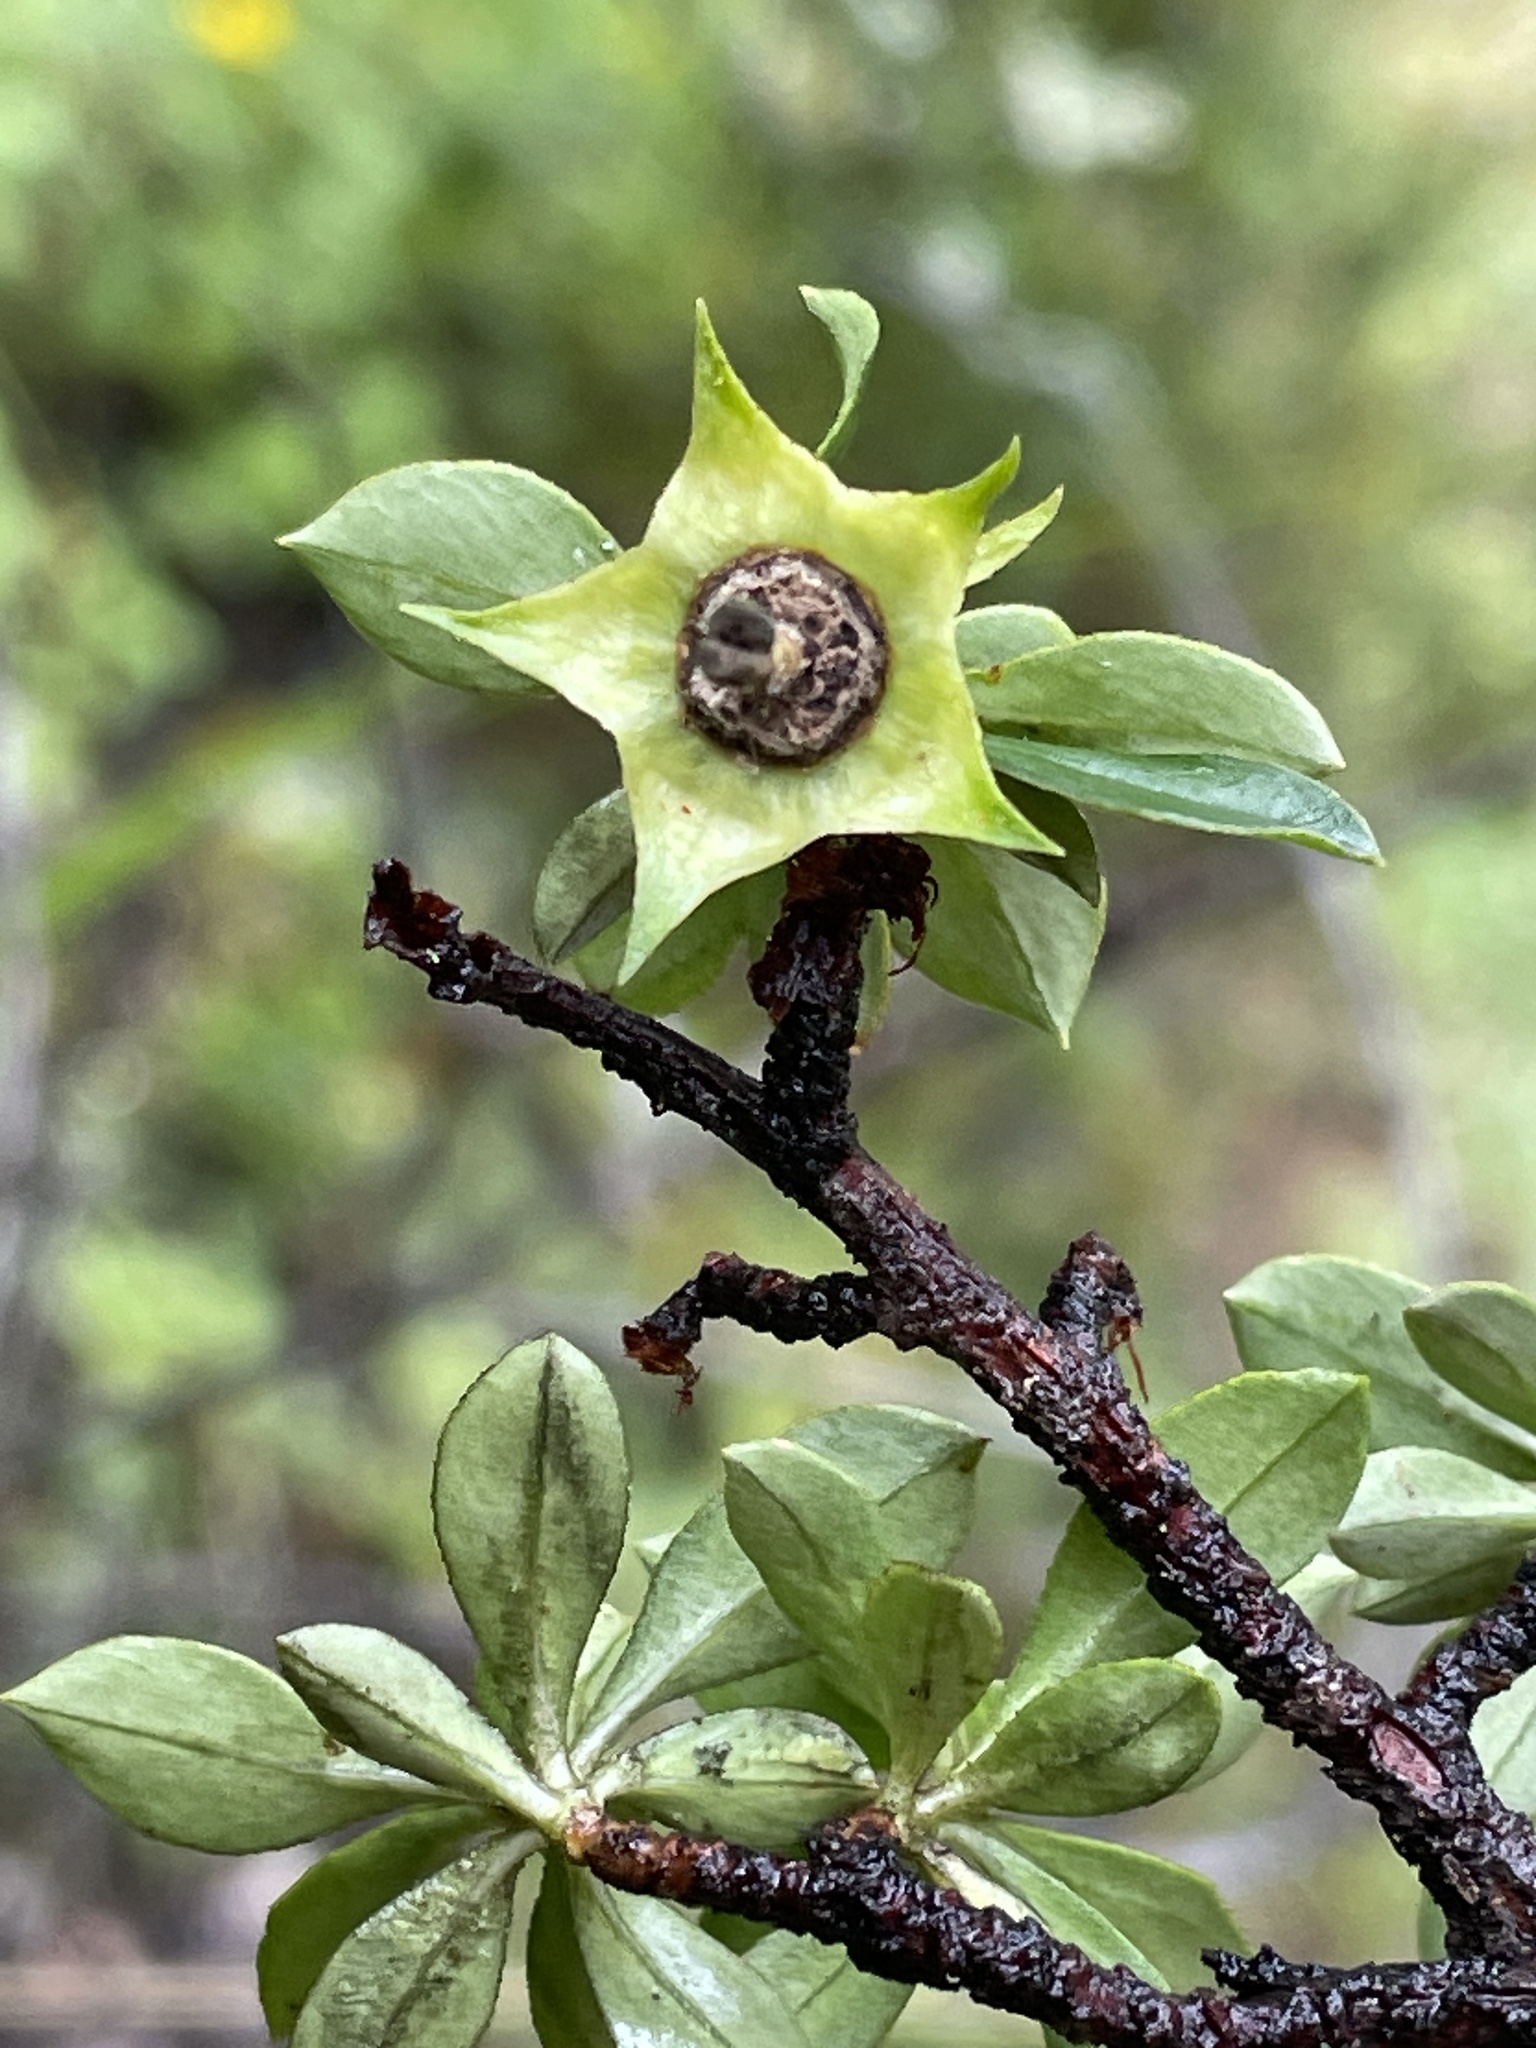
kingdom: Plantae
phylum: Tracheophyta
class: Magnoliopsida
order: Escalloniales
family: Escalloniaceae
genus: Escallonia
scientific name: Escallonia myrtilloides
